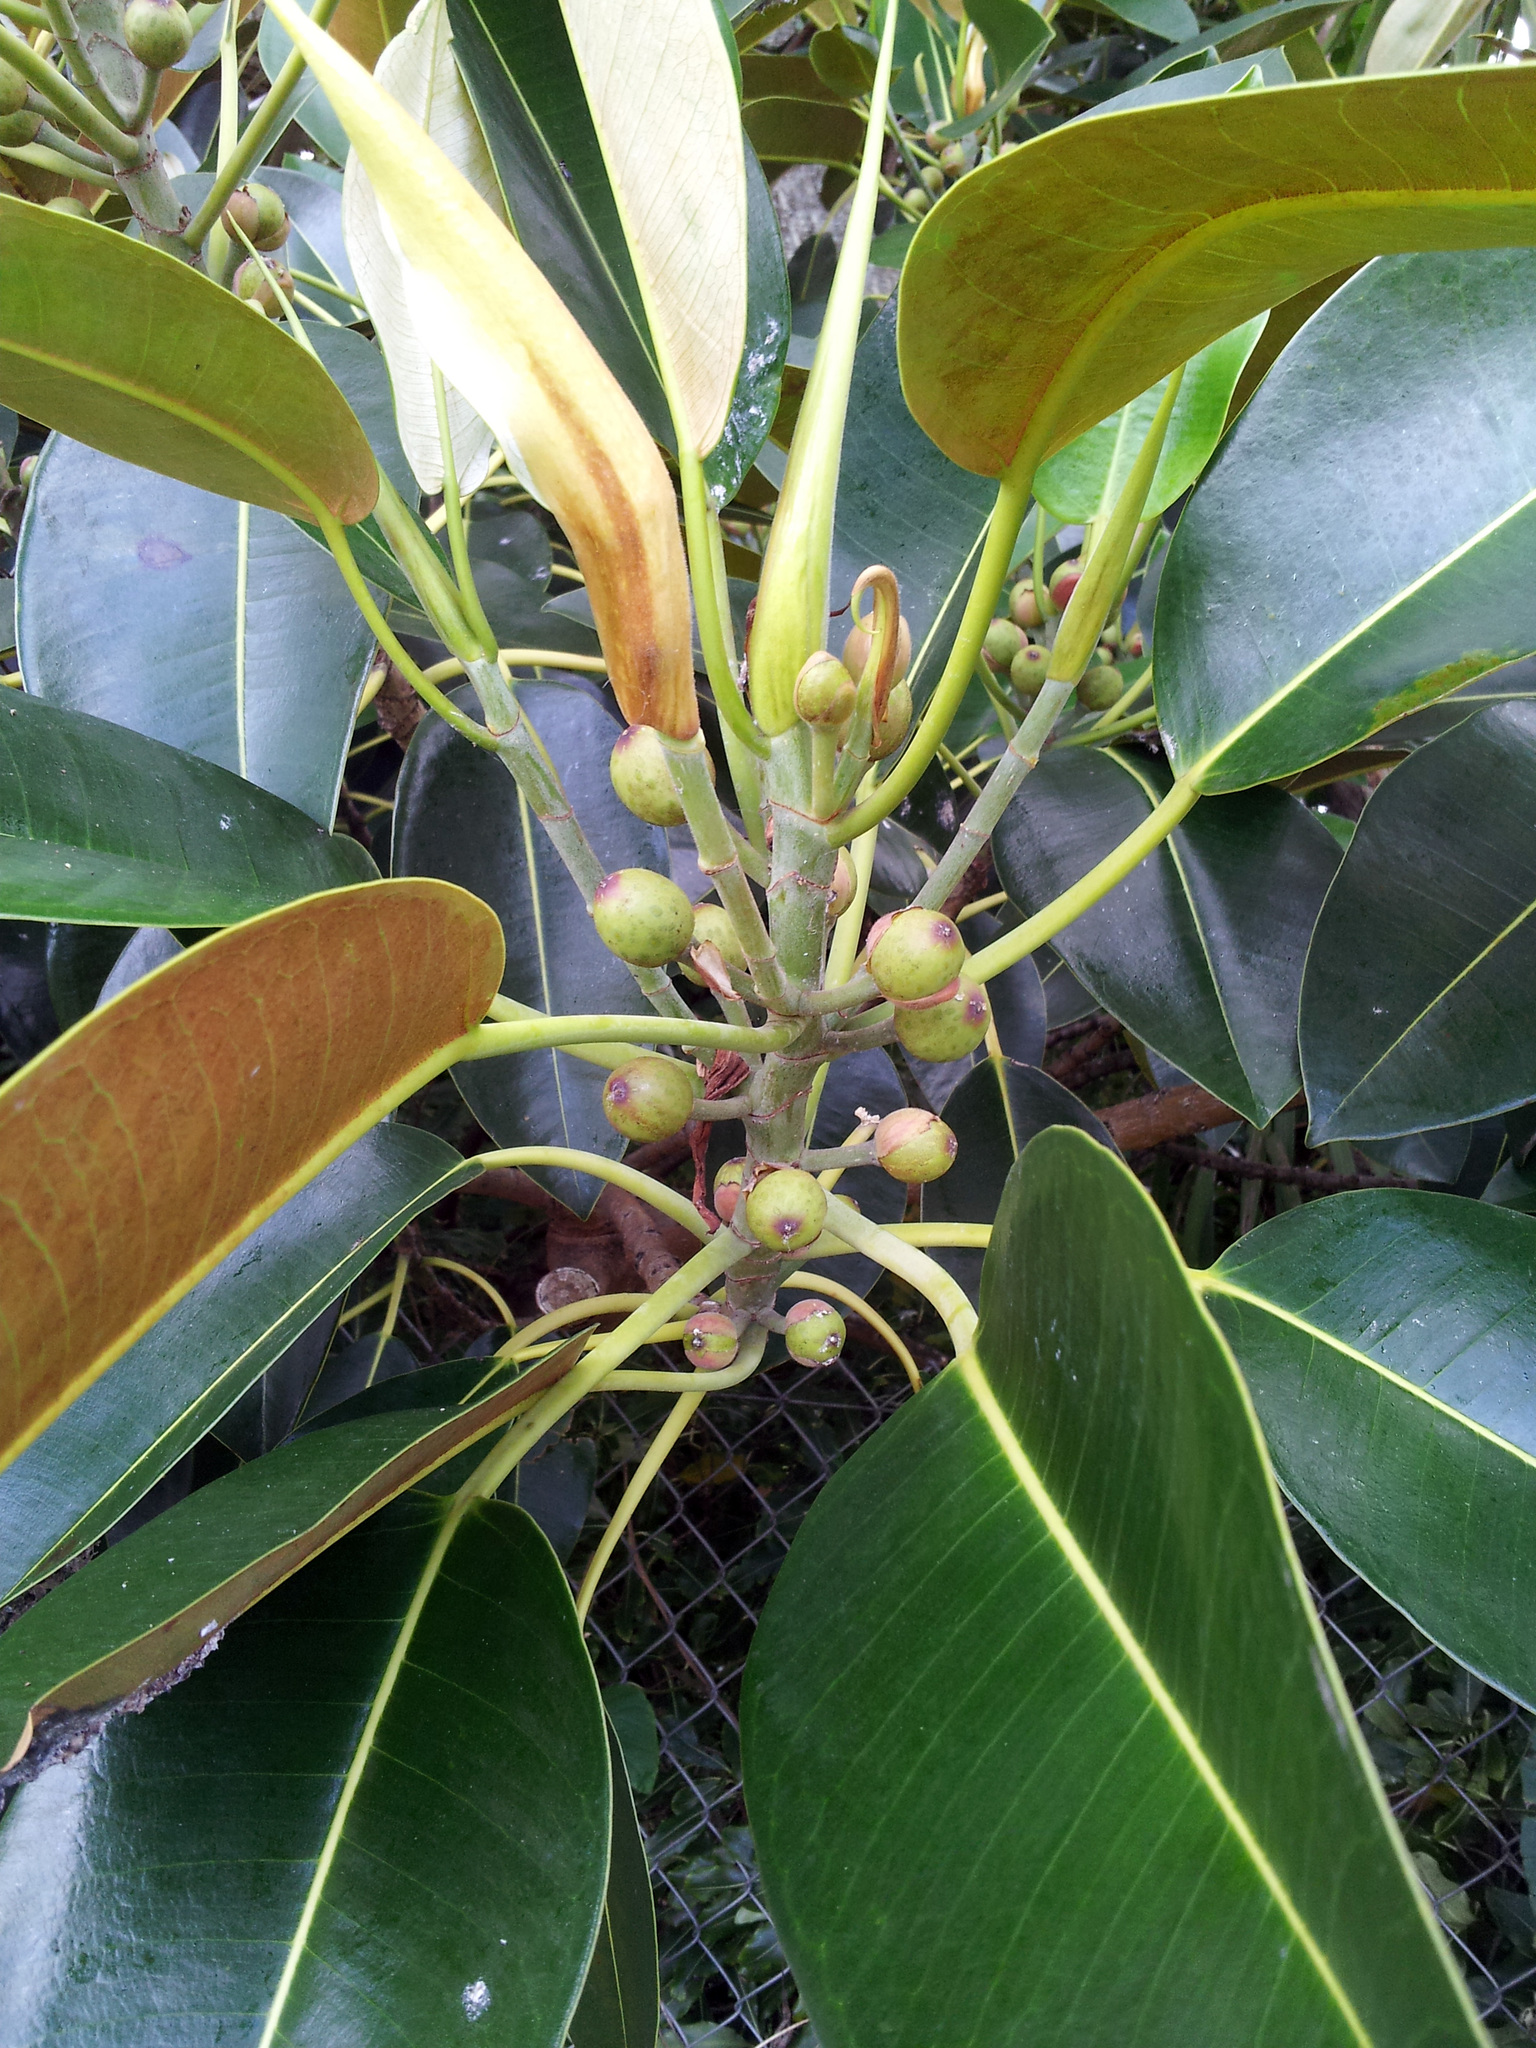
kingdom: Plantae
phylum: Tracheophyta
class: Magnoliopsida
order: Rosales
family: Moraceae
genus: Ficus
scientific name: Ficus macrophylla
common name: Moreton bay fig
